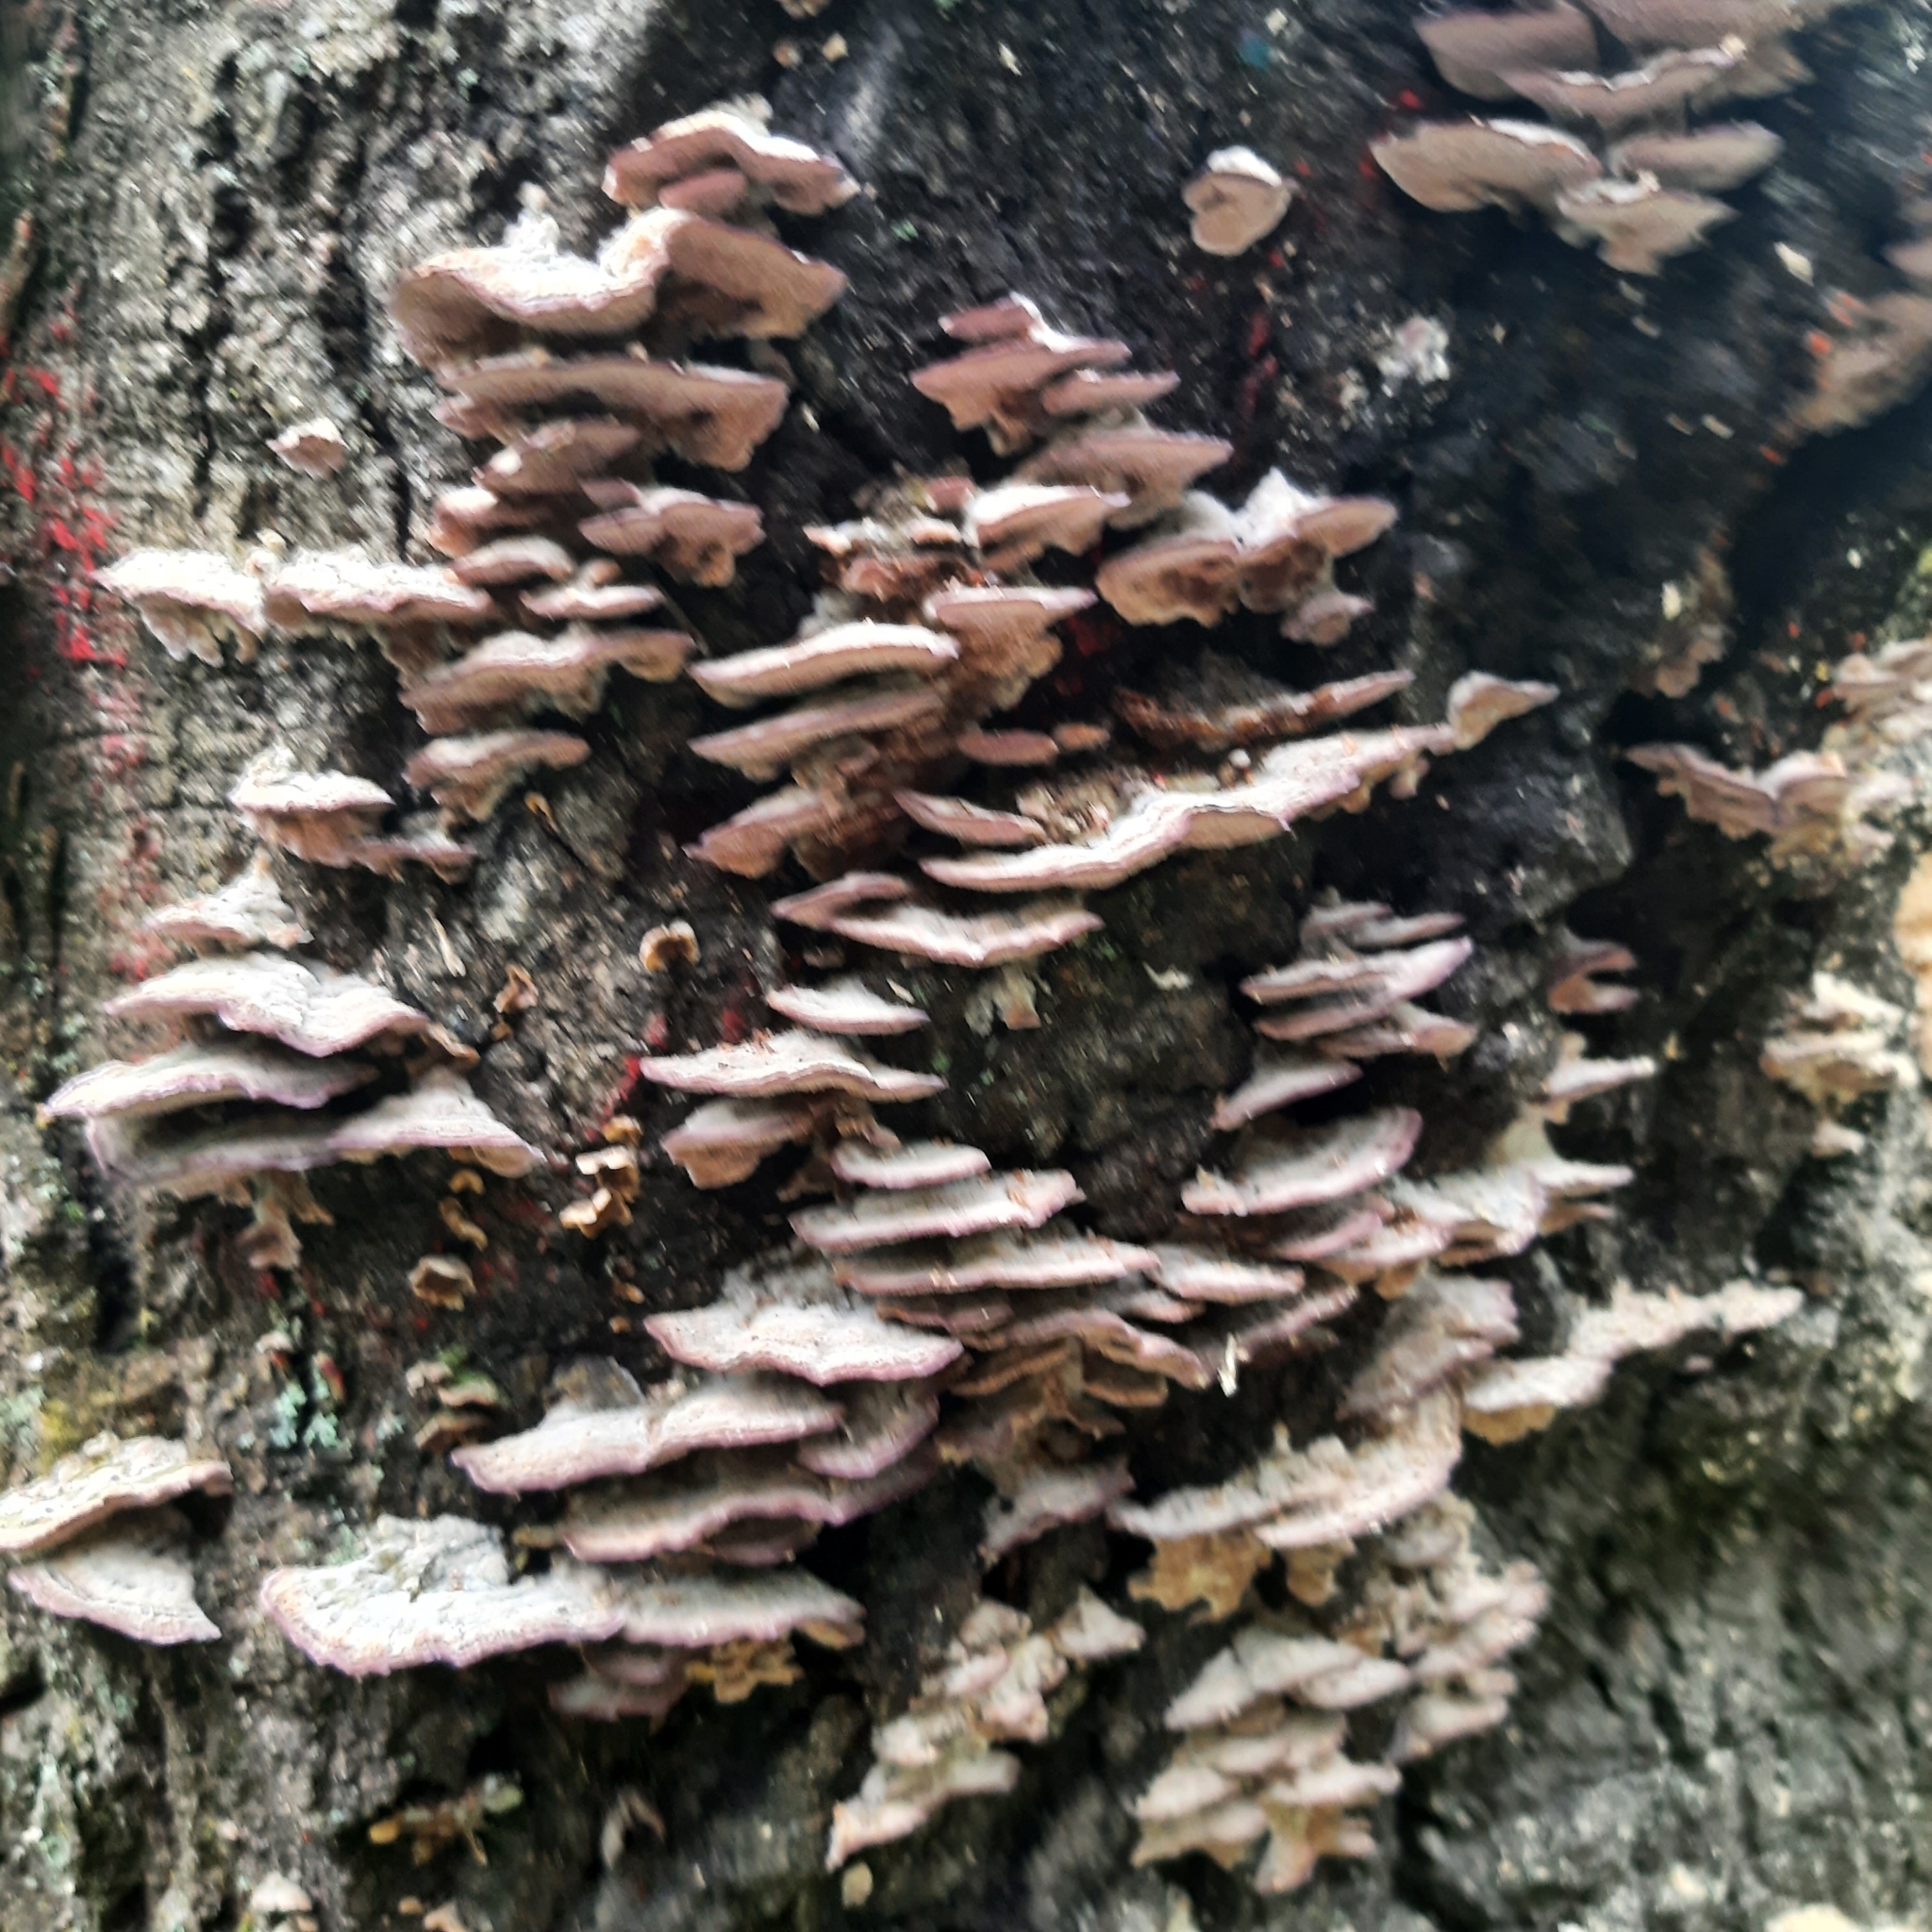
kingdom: Fungi
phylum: Basidiomycota
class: Agaricomycetes
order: Hymenochaetales
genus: Trichaptum
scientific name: Trichaptum biforme
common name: Violet-toothed polypore
